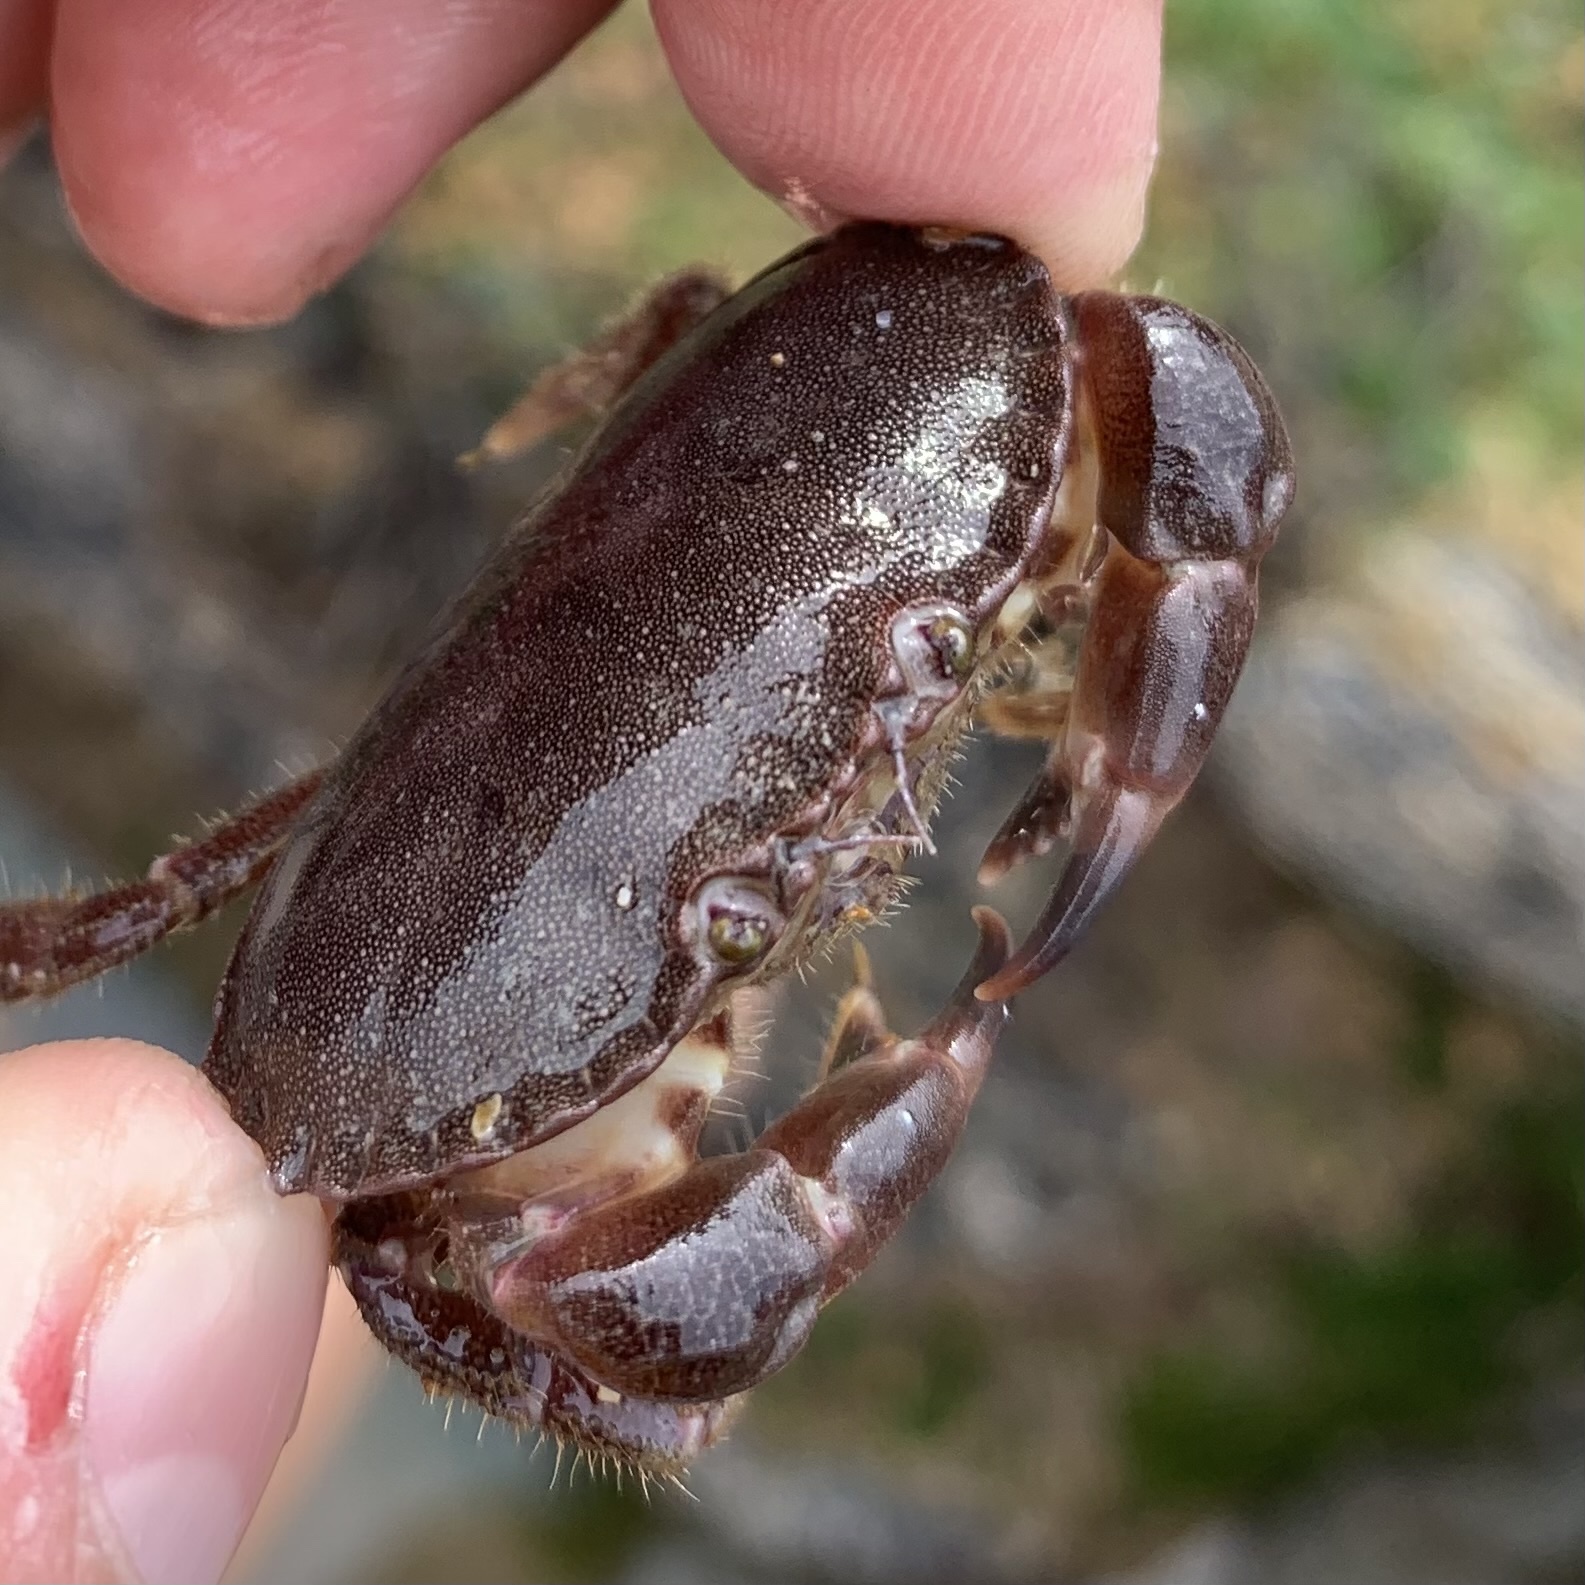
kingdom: Animalia
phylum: Arthropoda
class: Malacostraca
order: Decapoda
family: Cancridae
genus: Cancer
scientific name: Cancer pagurus
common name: Edible crab
